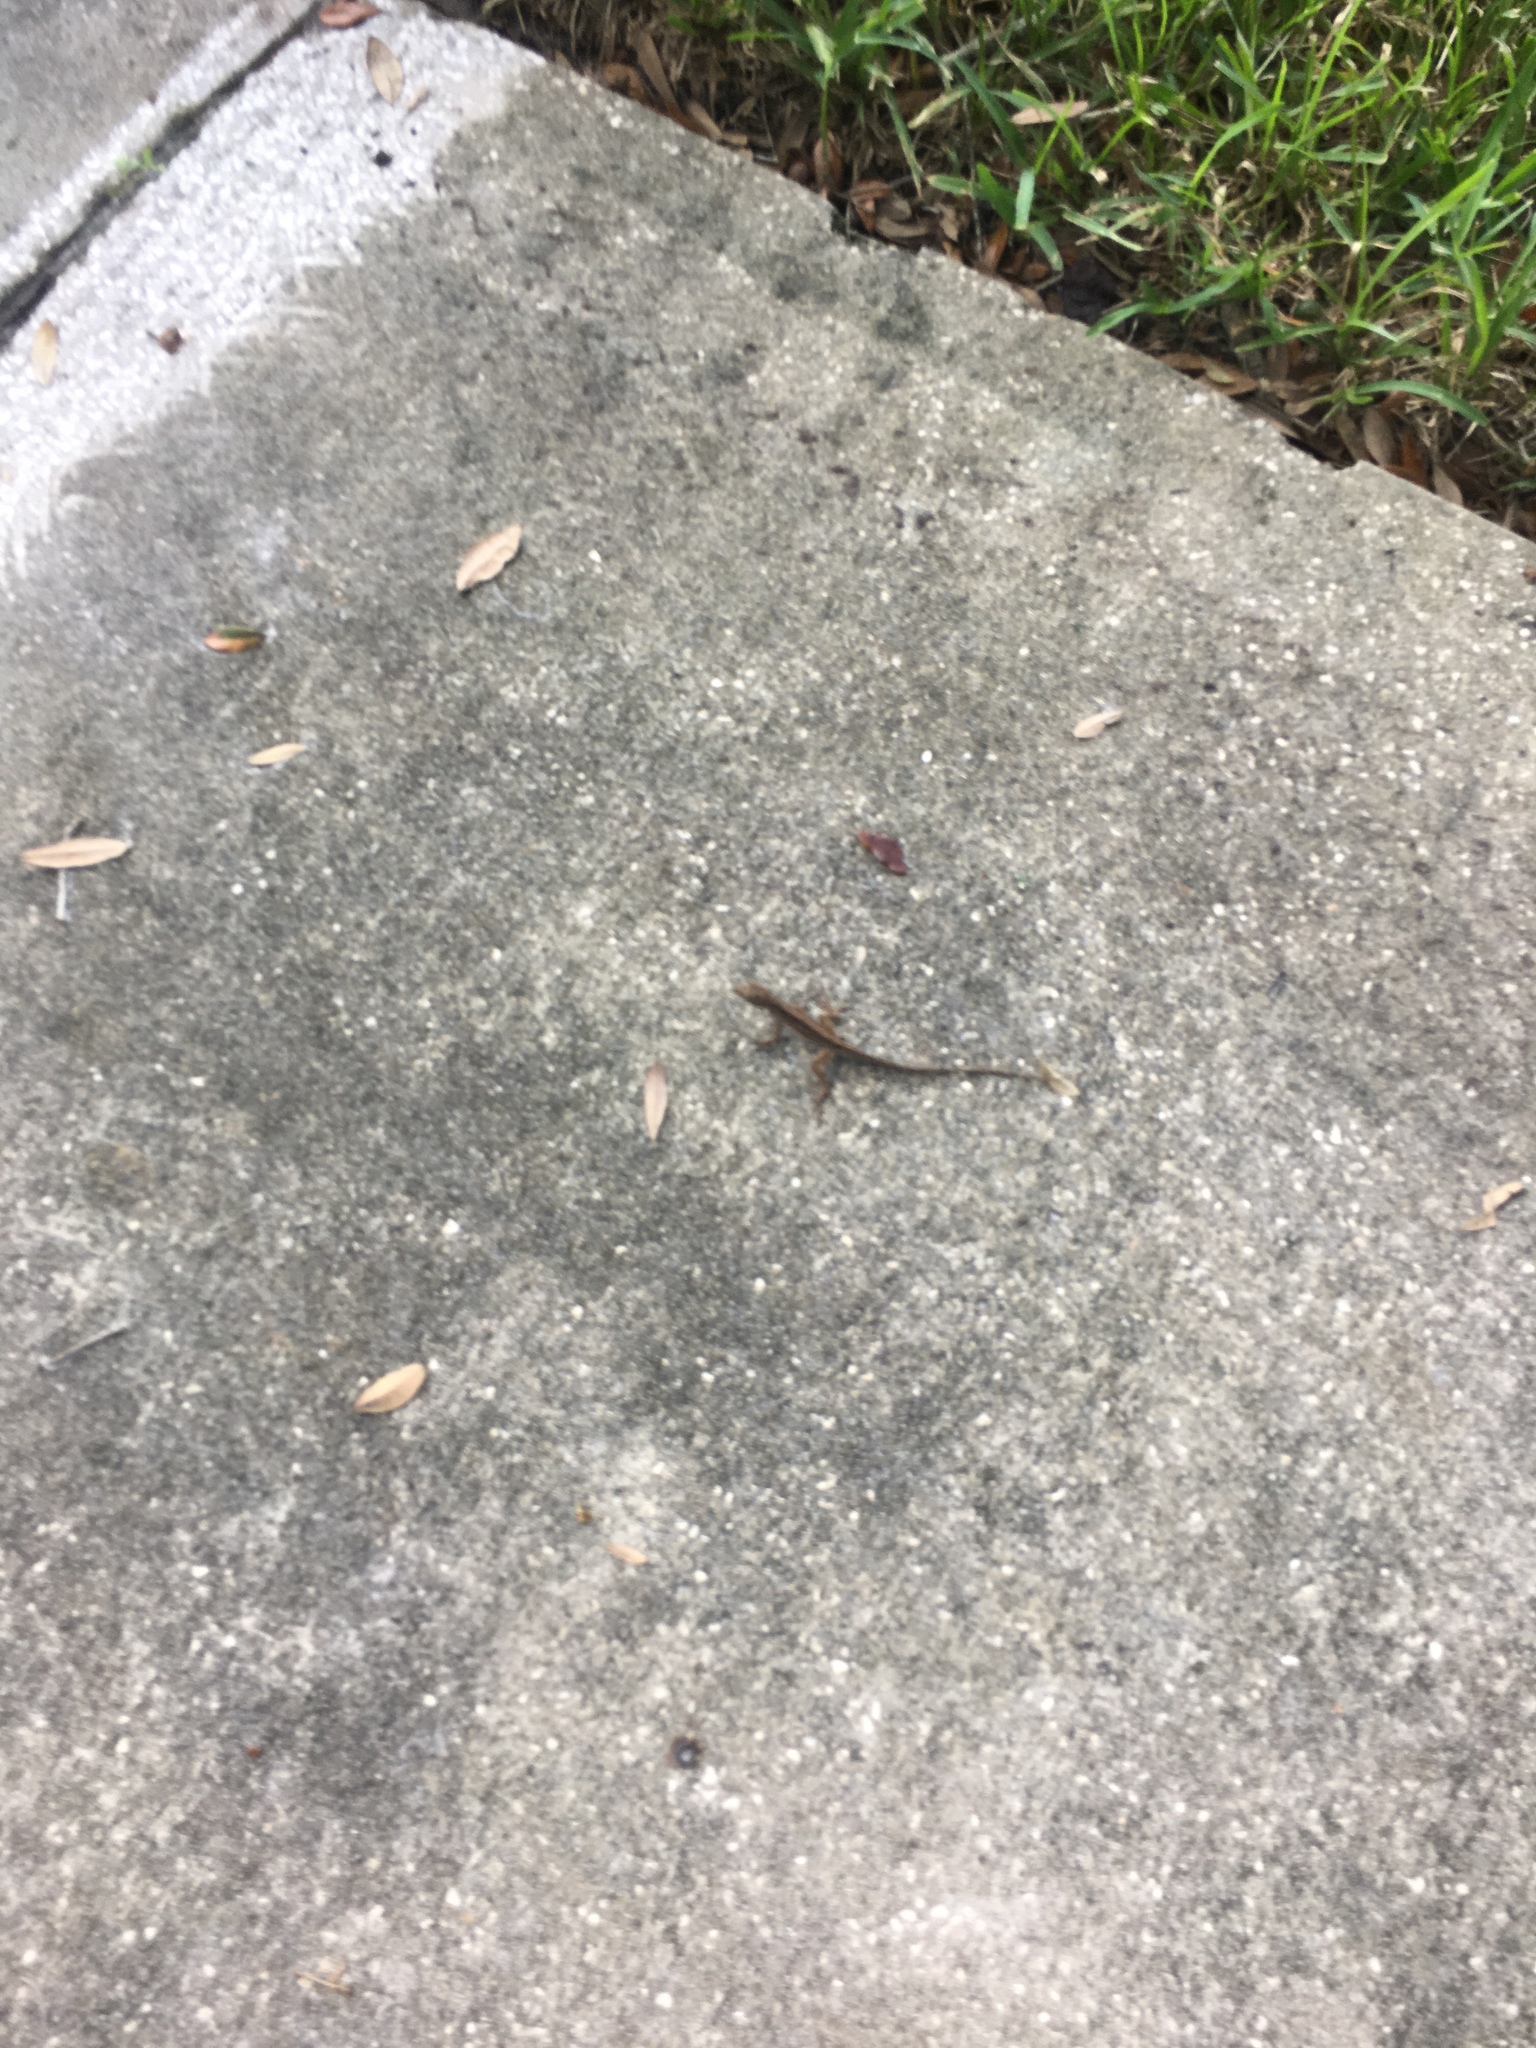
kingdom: Animalia
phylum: Chordata
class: Squamata
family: Dactyloidae
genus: Anolis
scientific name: Anolis sagrei
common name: Brown anole
